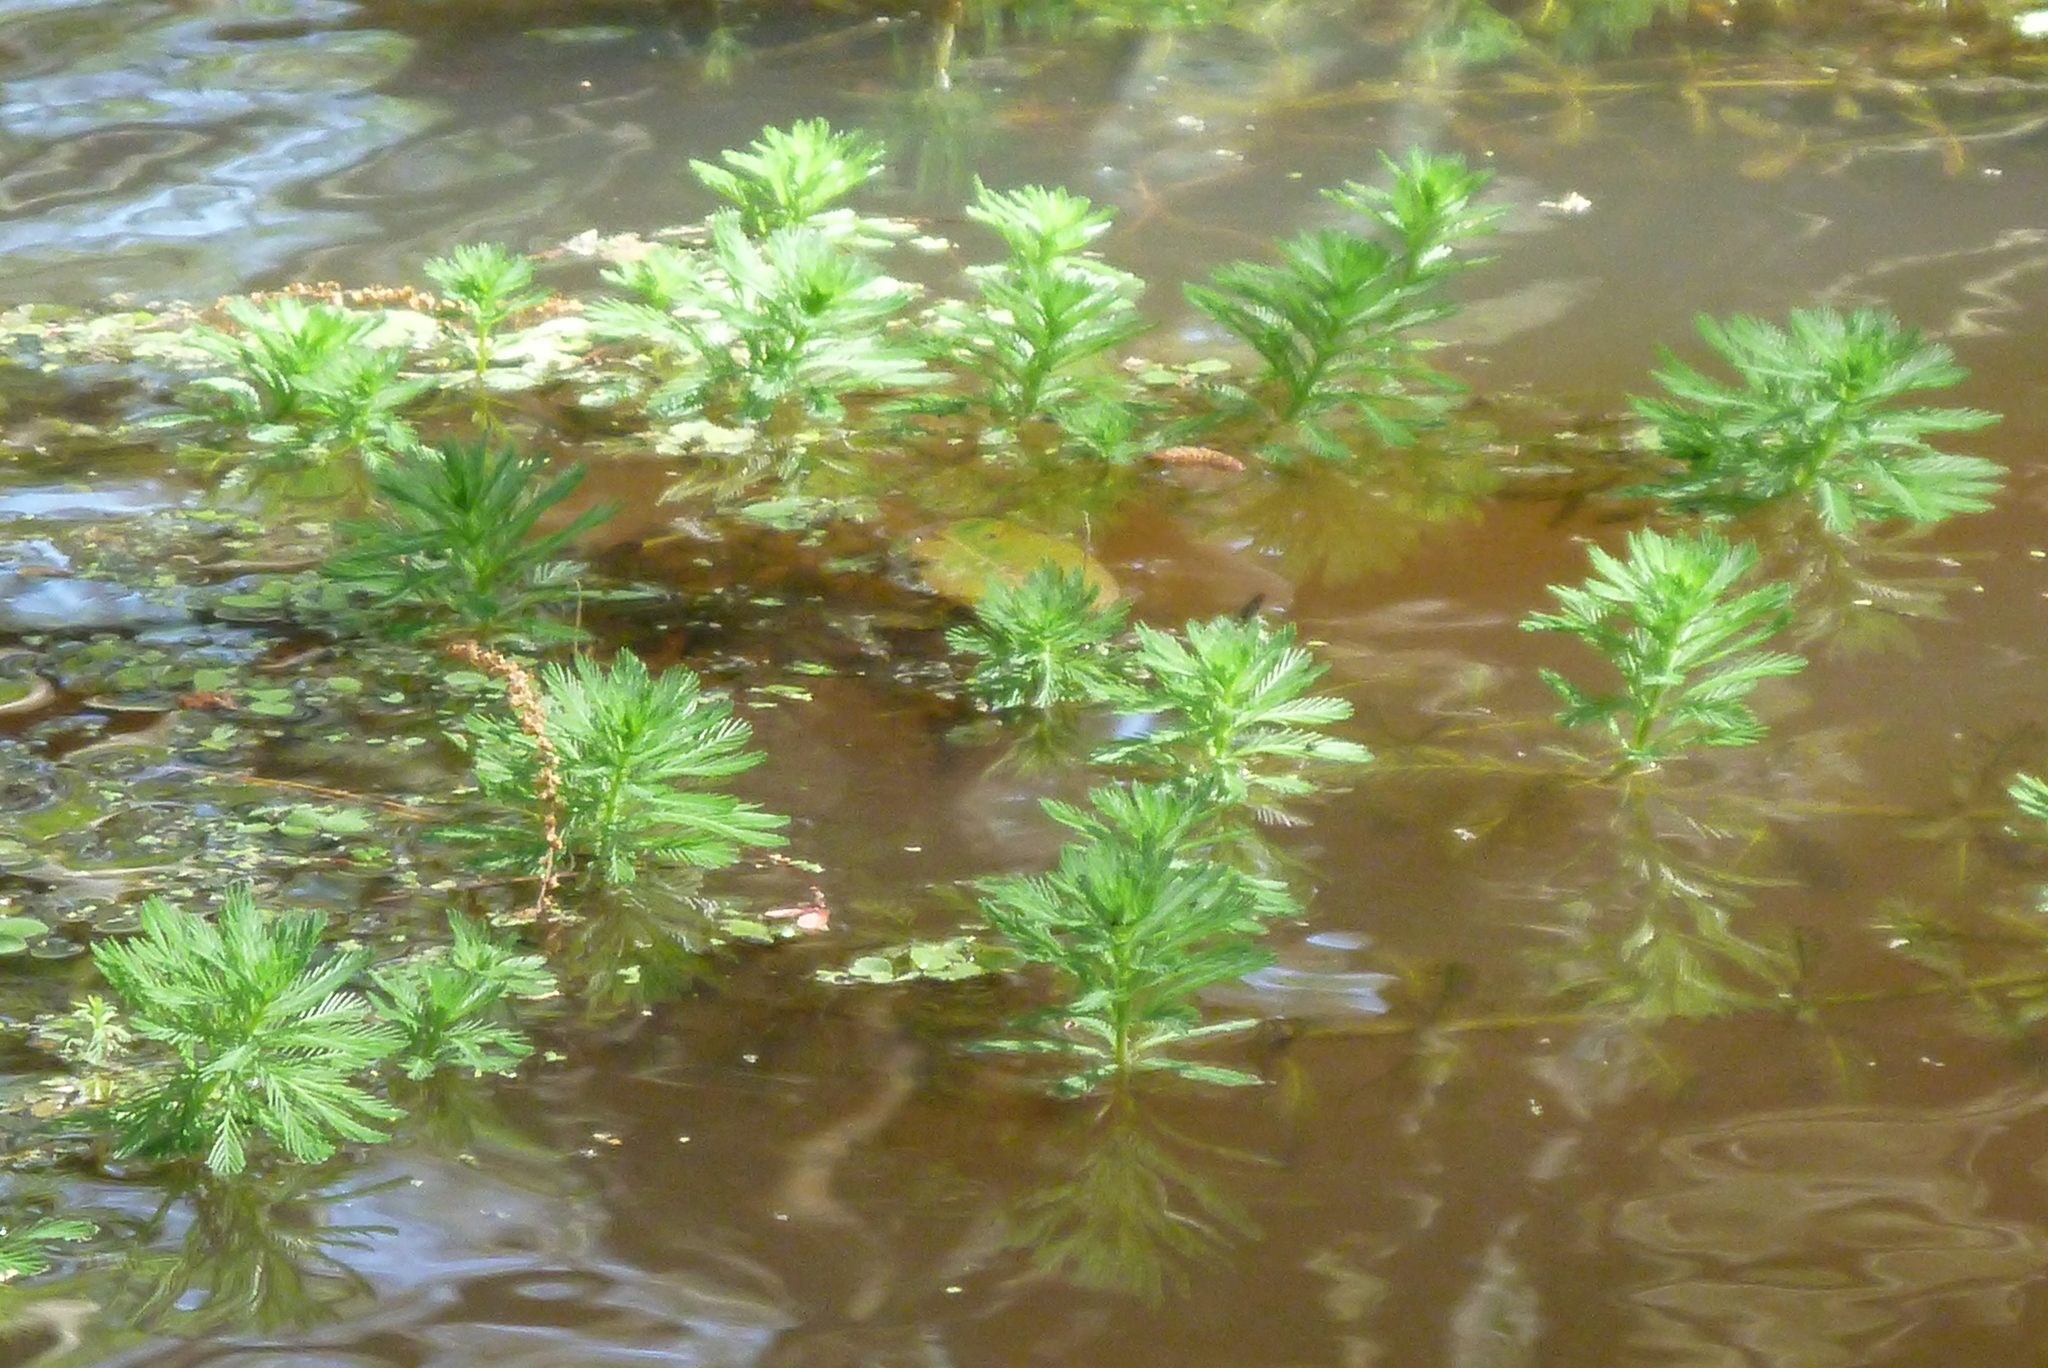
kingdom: Plantae
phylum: Tracheophyta
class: Magnoliopsida
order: Saxifragales
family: Haloragaceae
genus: Myriophyllum
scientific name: Myriophyllum aquaticum
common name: Parrot's feather
